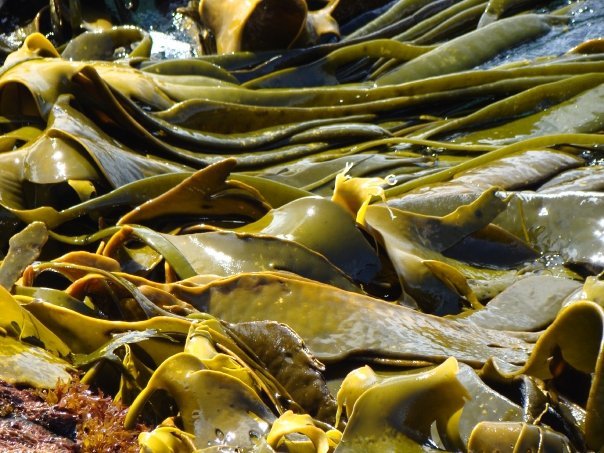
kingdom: Chromista
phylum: Ochrophyta
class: Phaeophyceae
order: Fucales
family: Durvillaeaceae
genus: Durvillaea
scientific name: Durvillaea antarctica
